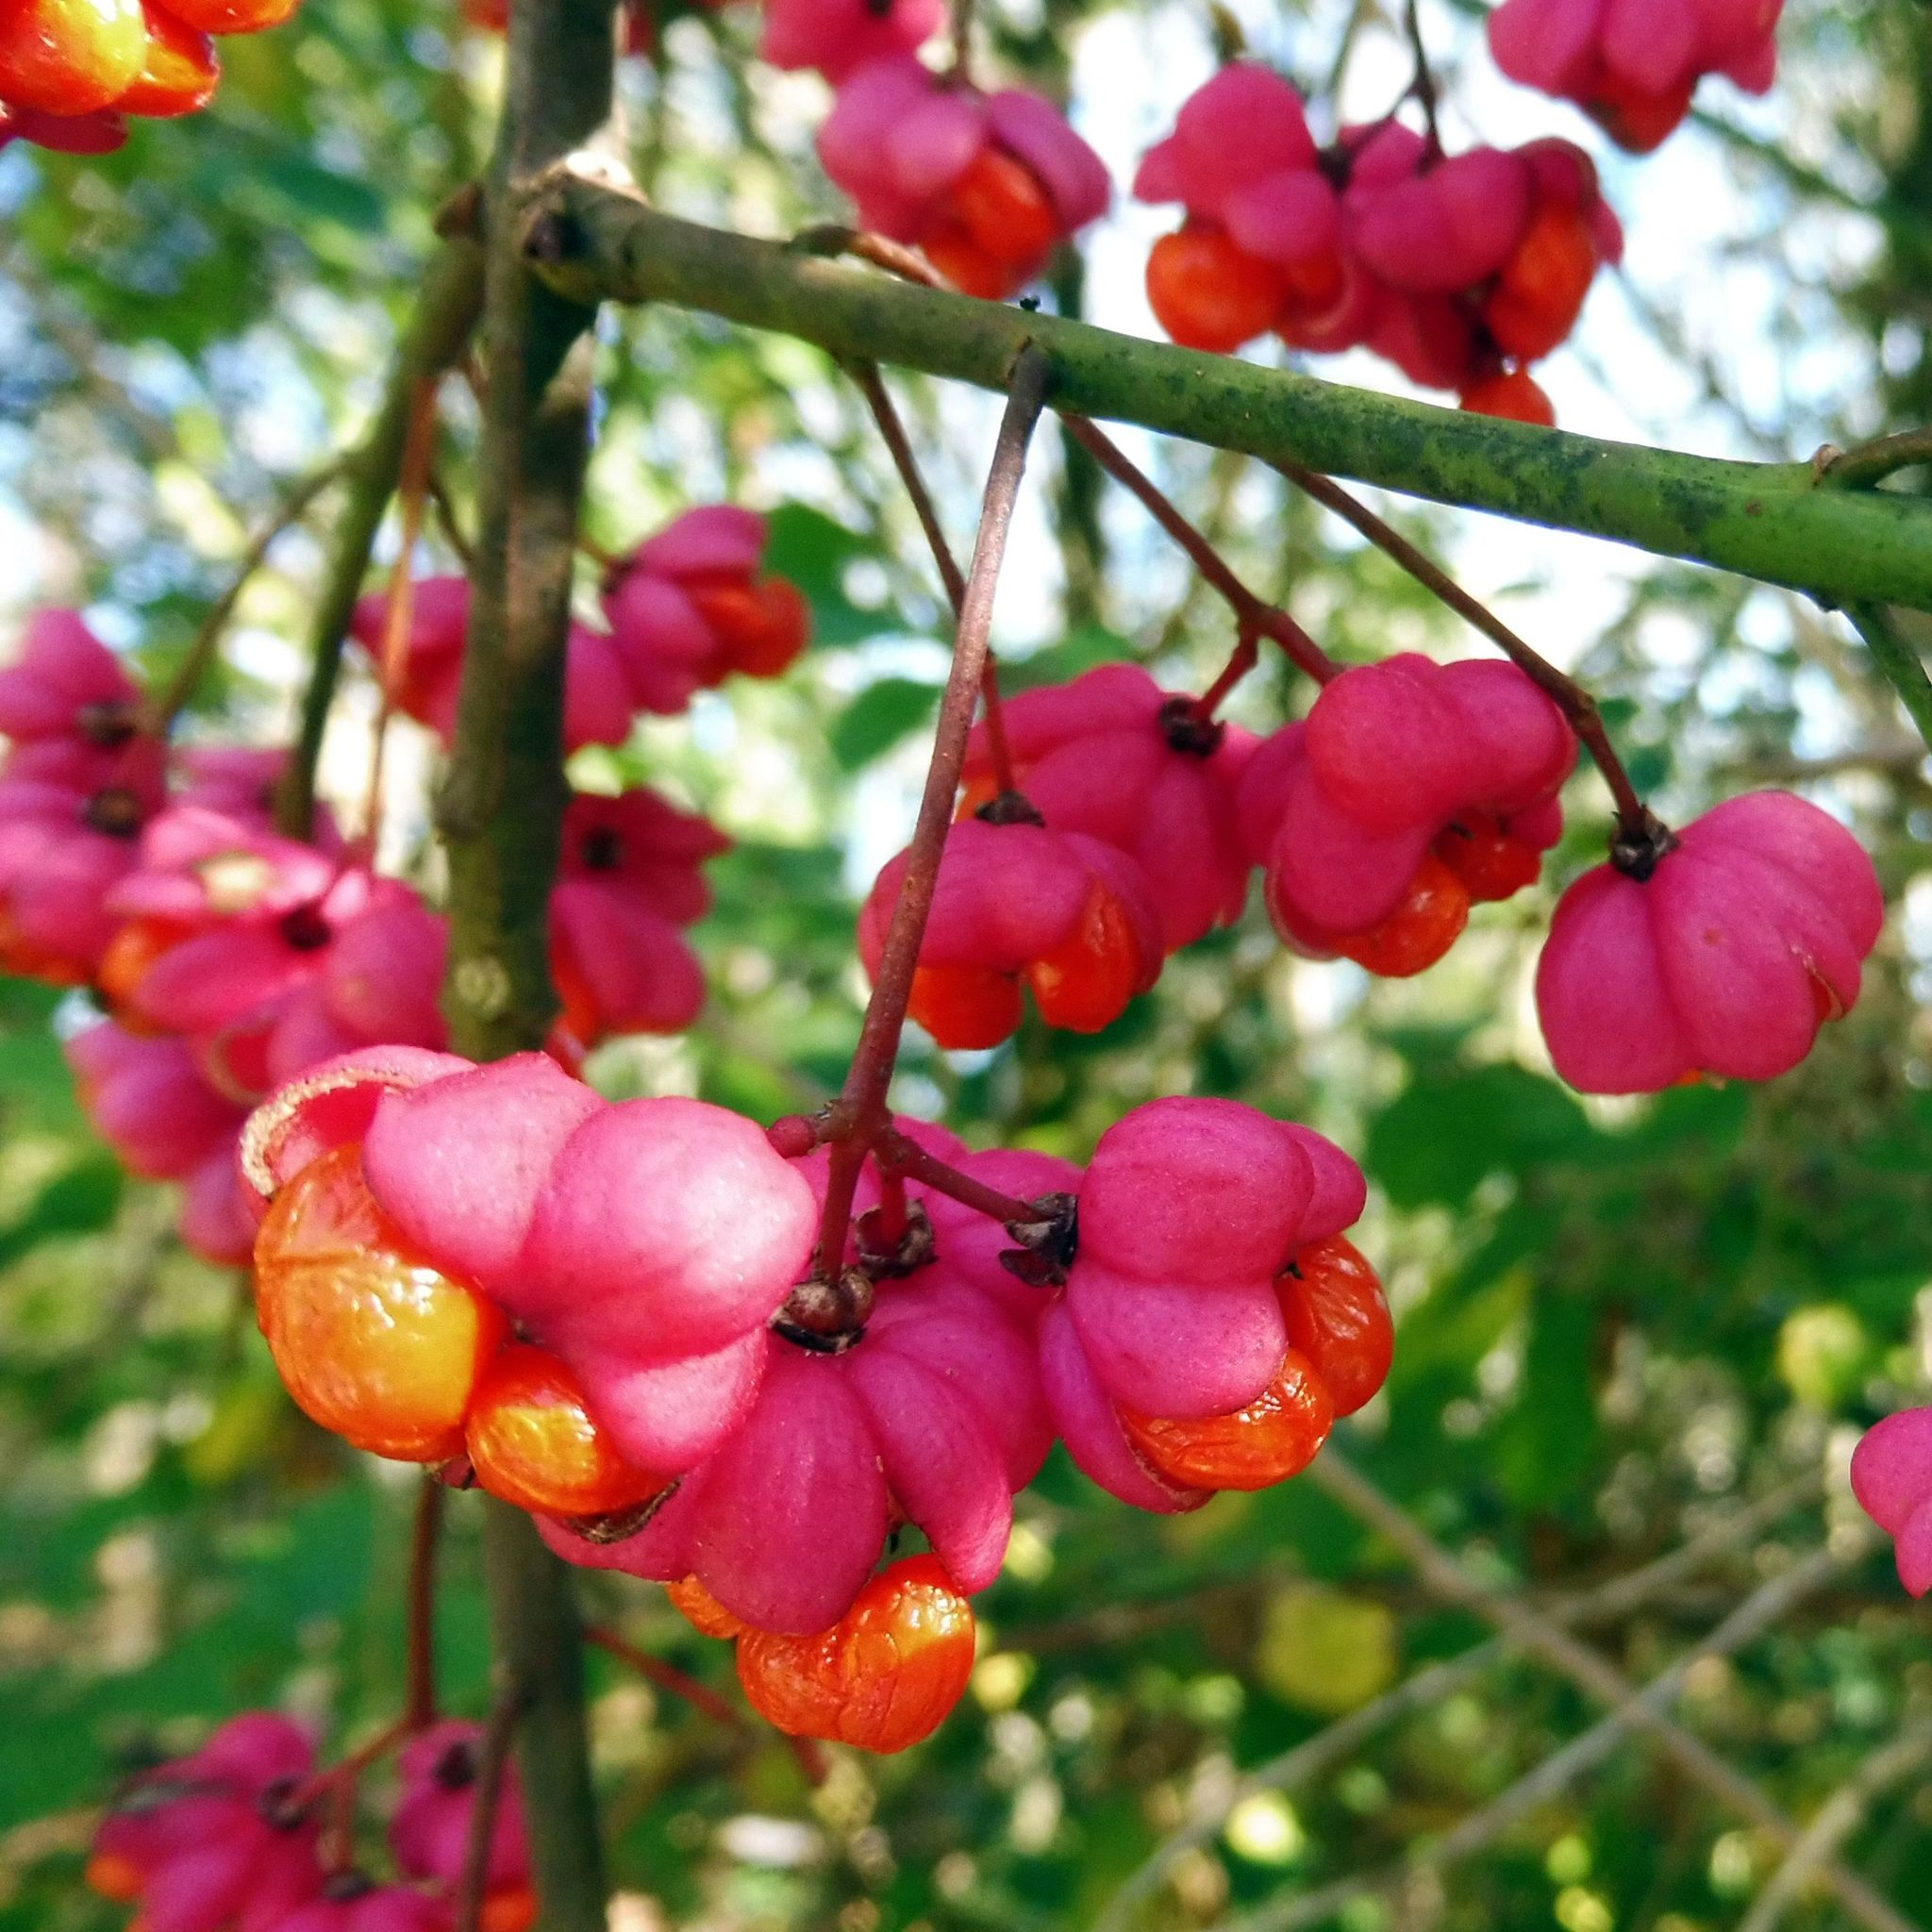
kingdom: Plantae
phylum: Tracheophyta
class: Magnoliopsida
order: Celastrales
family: Celastraceae
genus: Euonymus
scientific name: Euonymus europaeus
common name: Spindle
